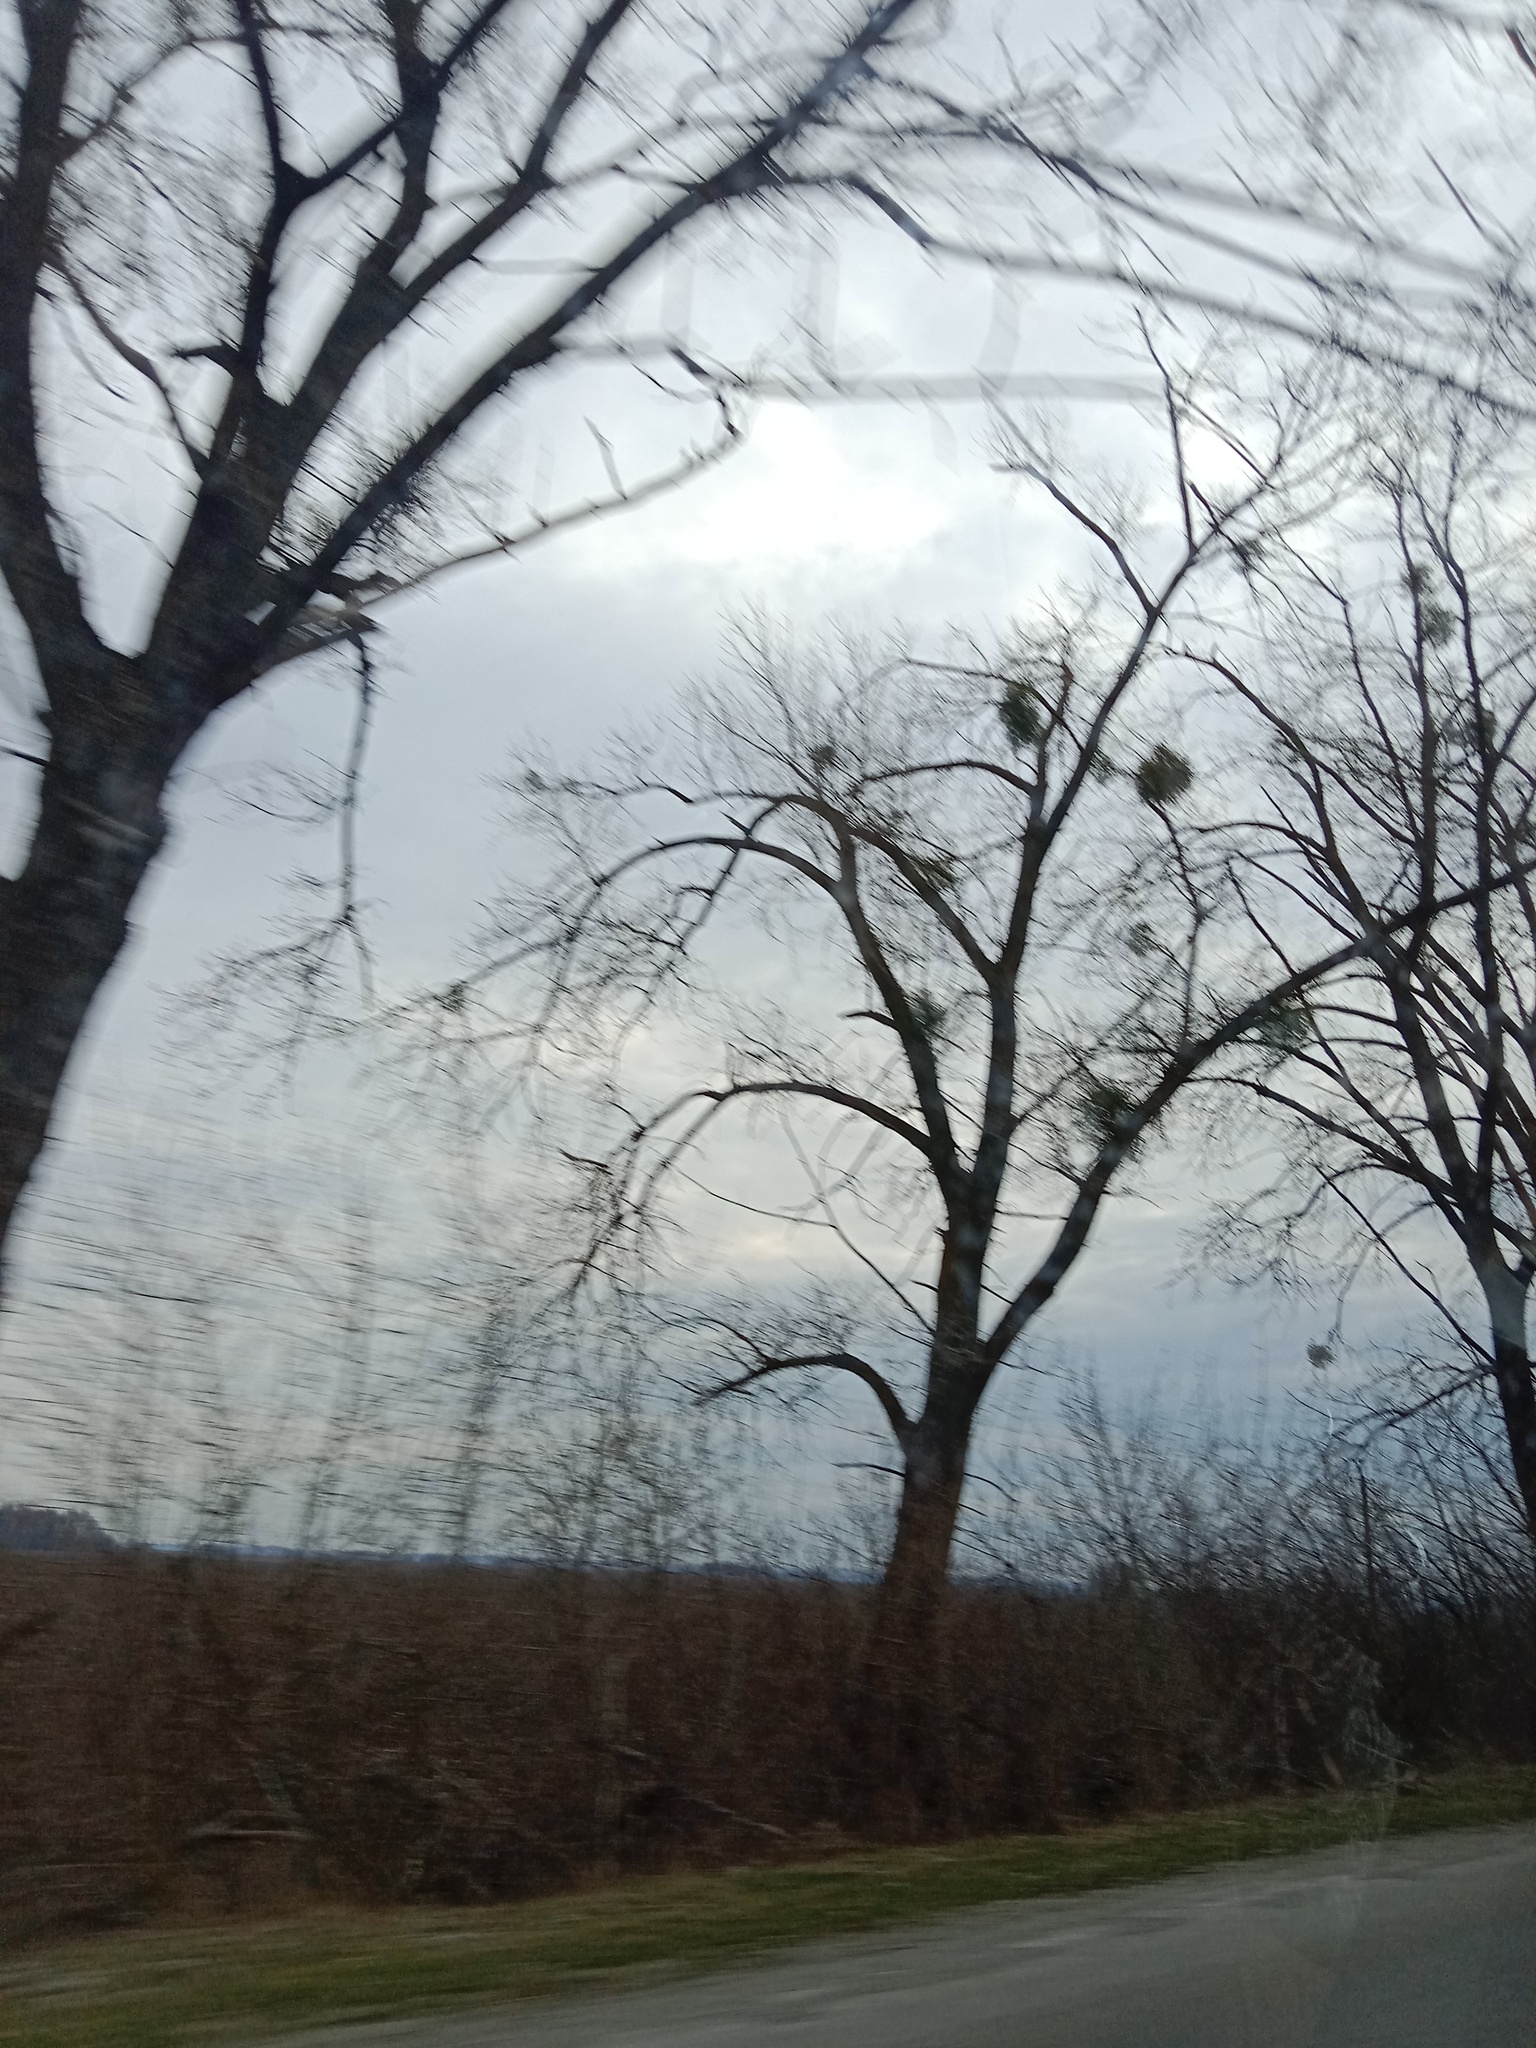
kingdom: Plantae
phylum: Tracheophyta
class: Magnoliopsida
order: Santalales
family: Viscaceae
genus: Viscum
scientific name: Viscum album
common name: Mistletoe
